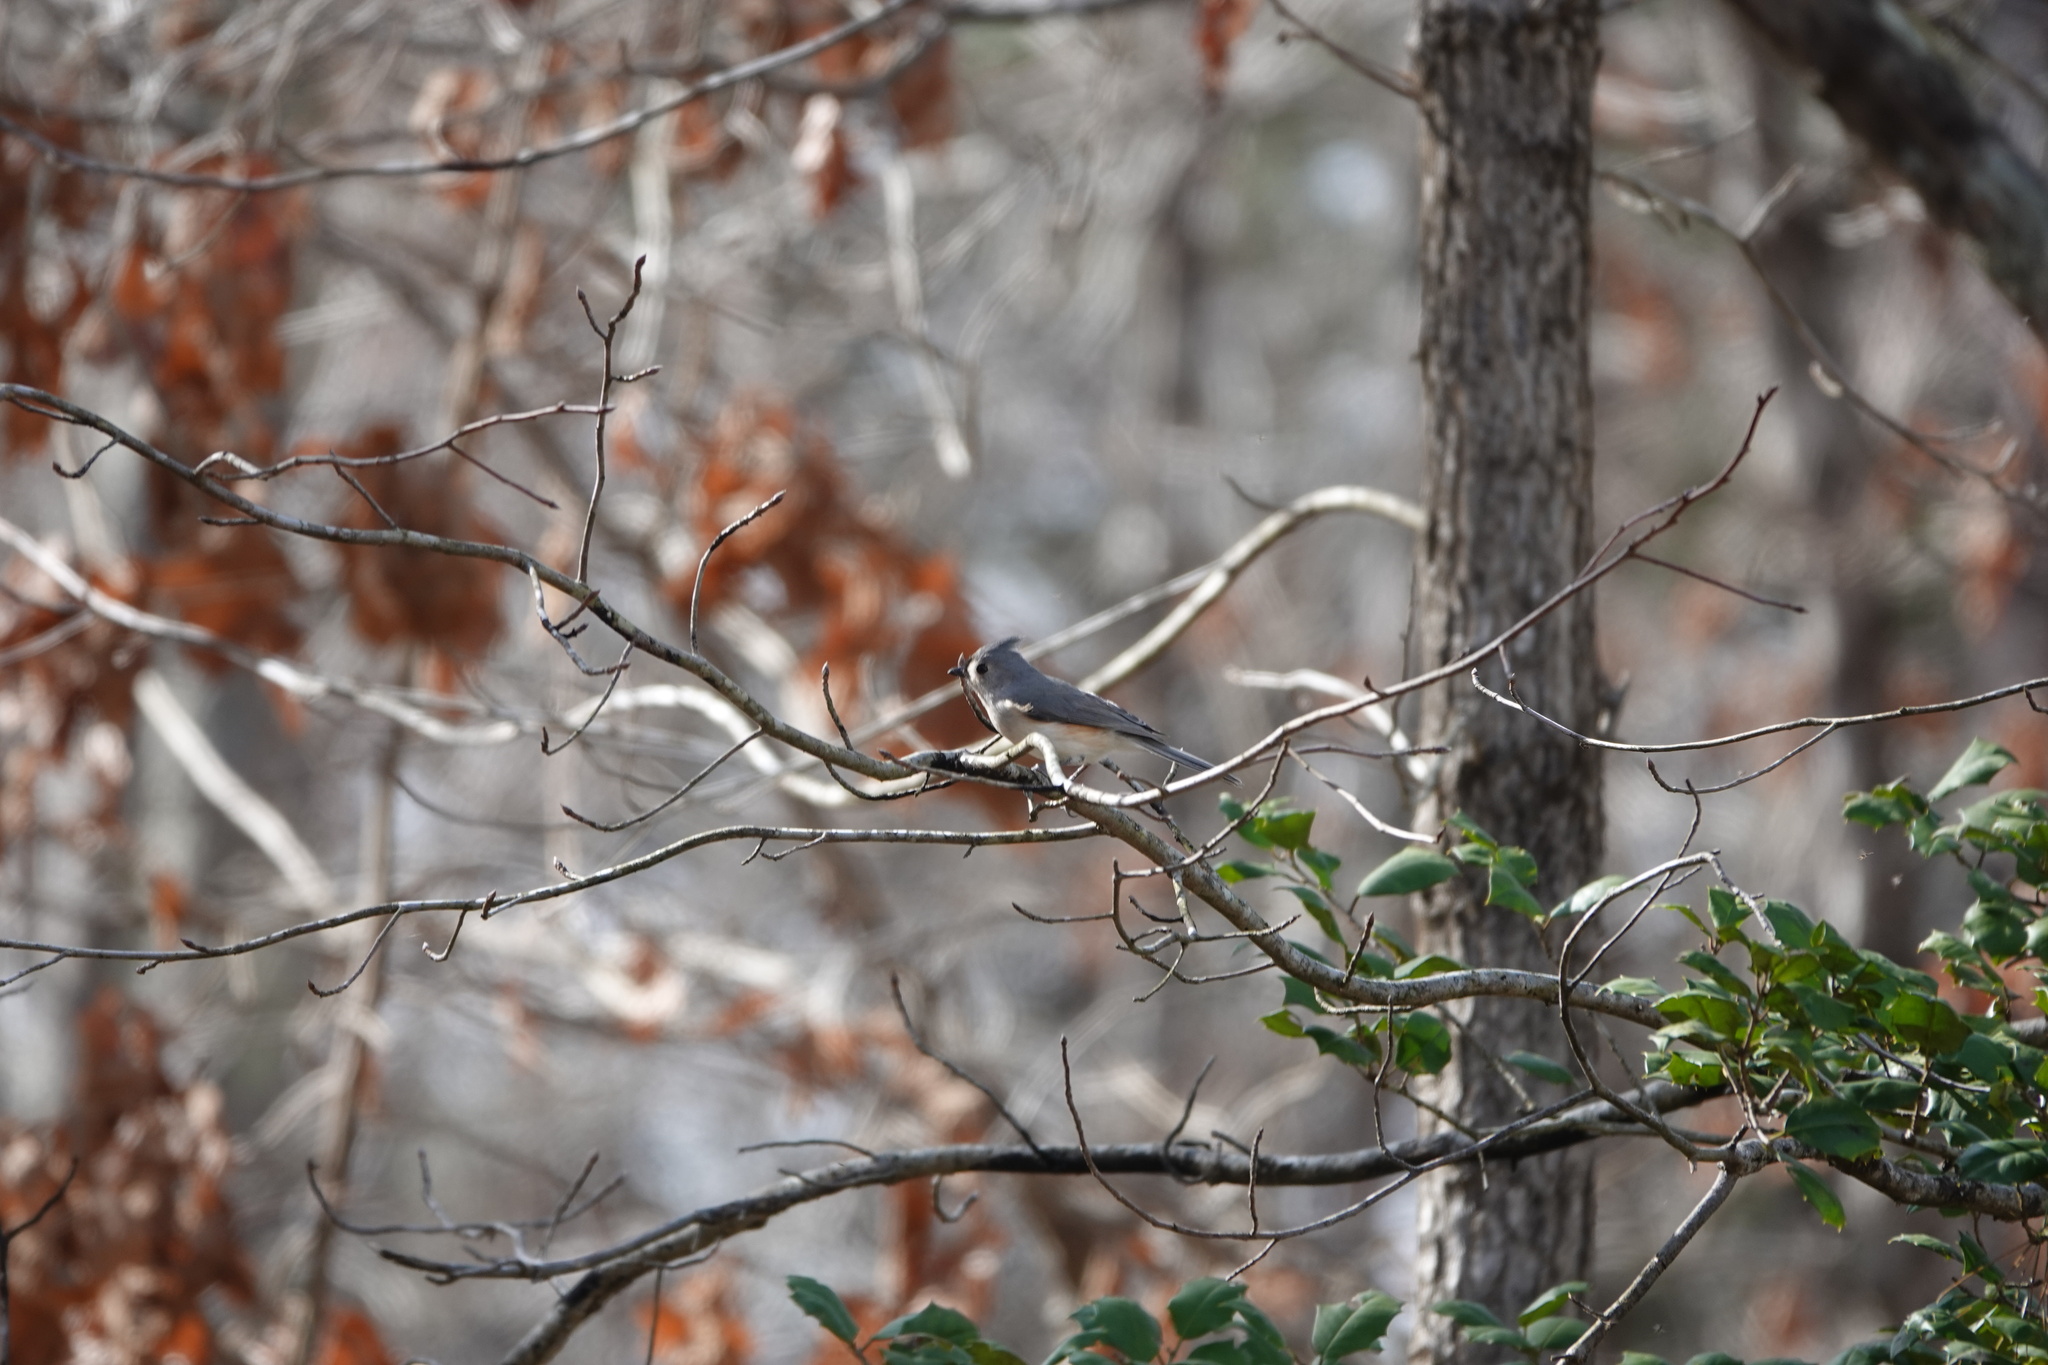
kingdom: Animalia
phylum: Chordata
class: Aves
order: Passeriformes
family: Paridae
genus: Baeolophus
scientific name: Baeolophus bicolor
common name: Tufted titmouse
